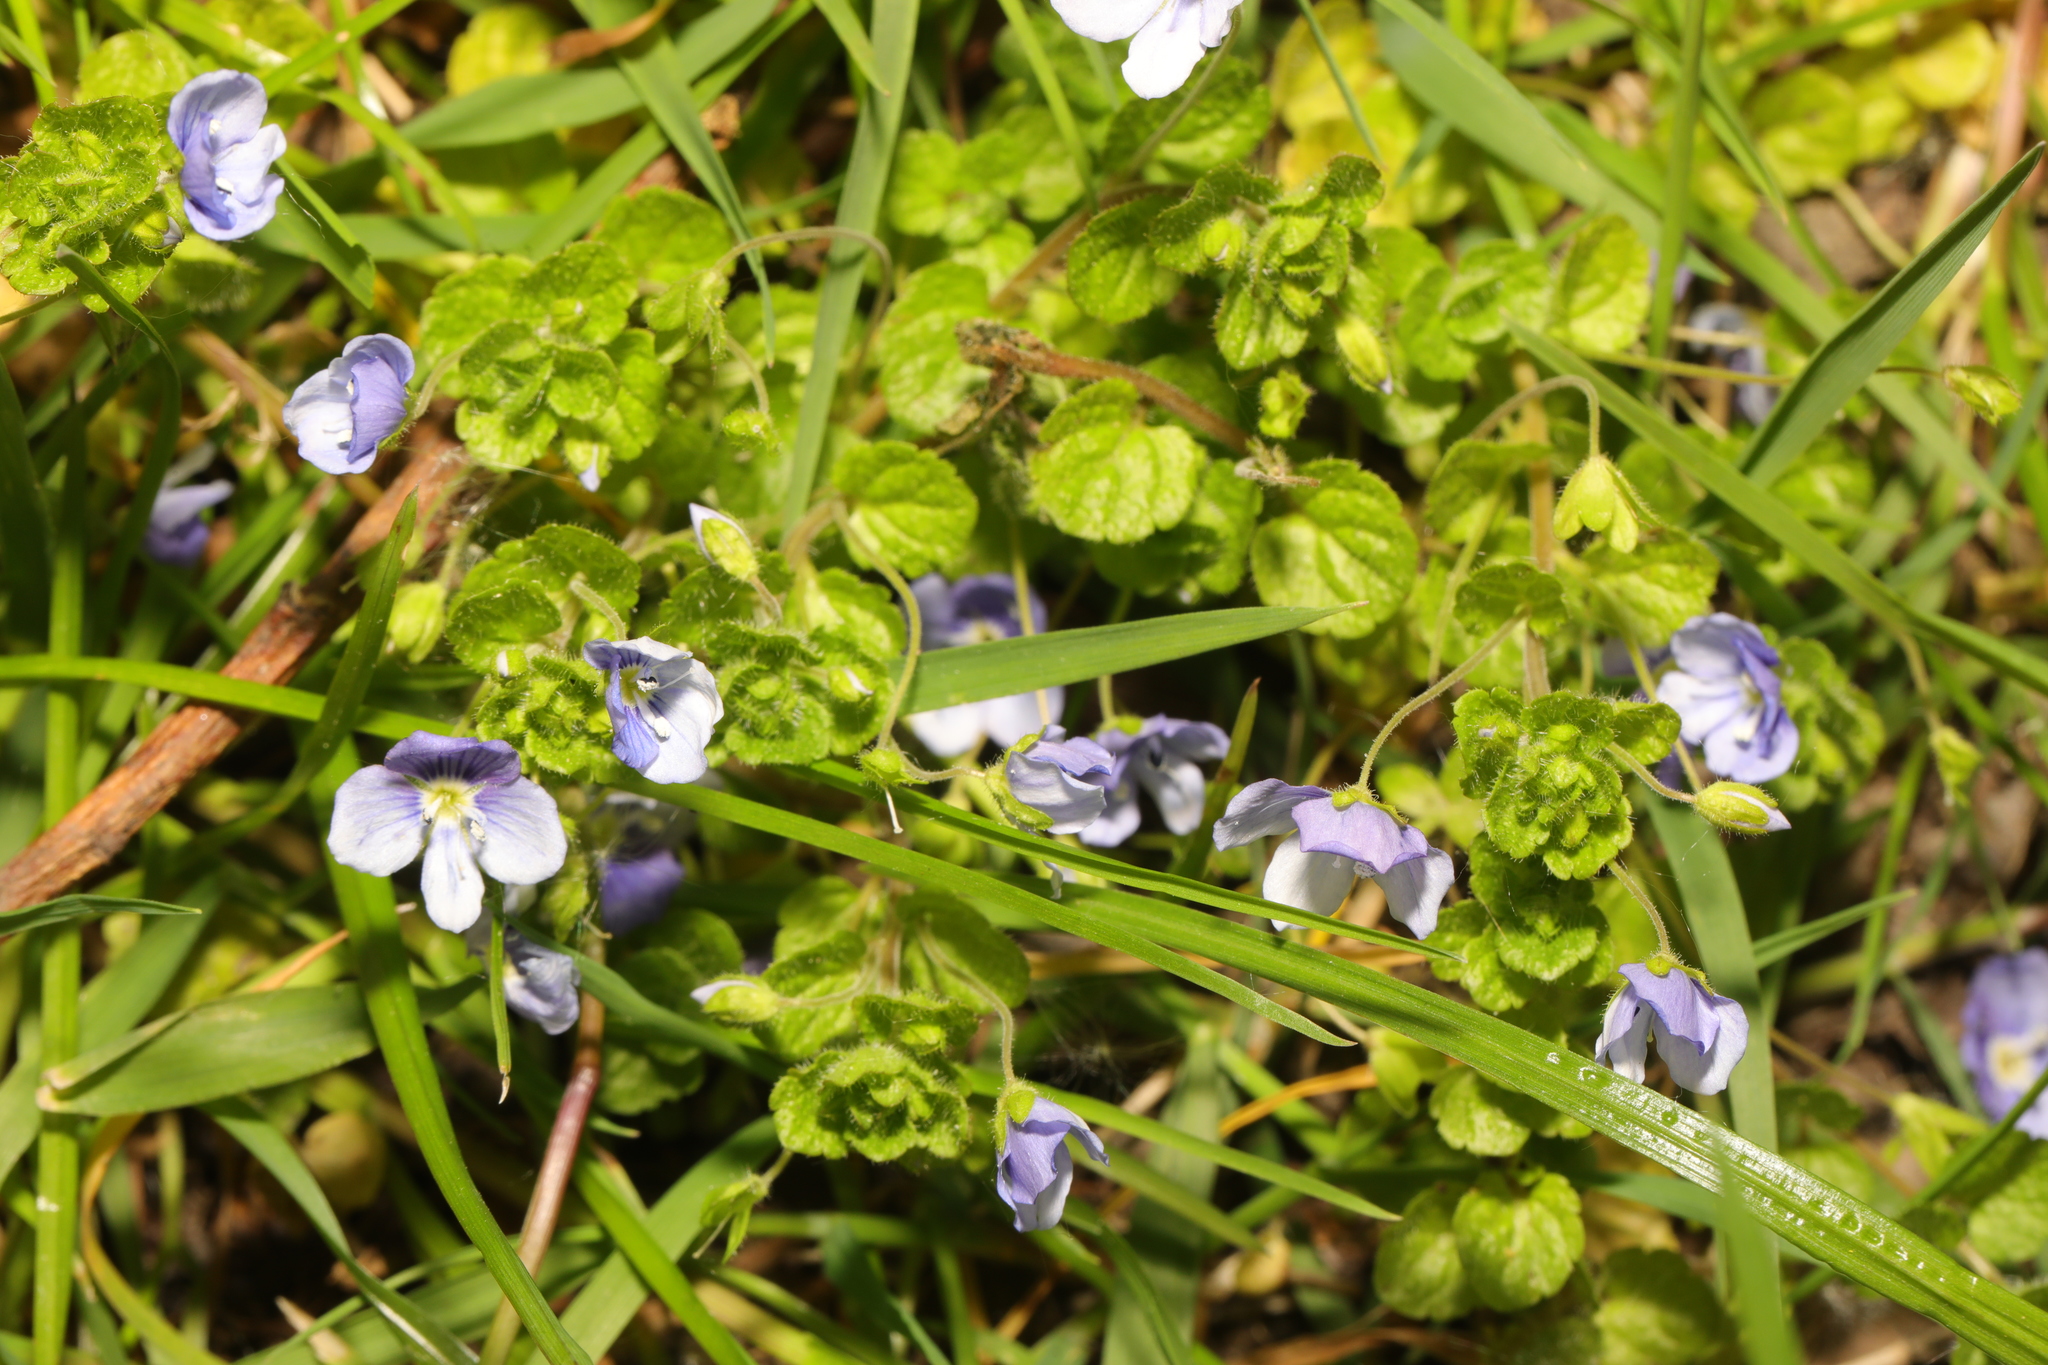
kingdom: Plantae
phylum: Tracheophyta
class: Magnoliopsida
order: Lamiales
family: Plantaginaceae
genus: Veronica
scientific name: Veronica filiformis
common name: Slender speedwell
